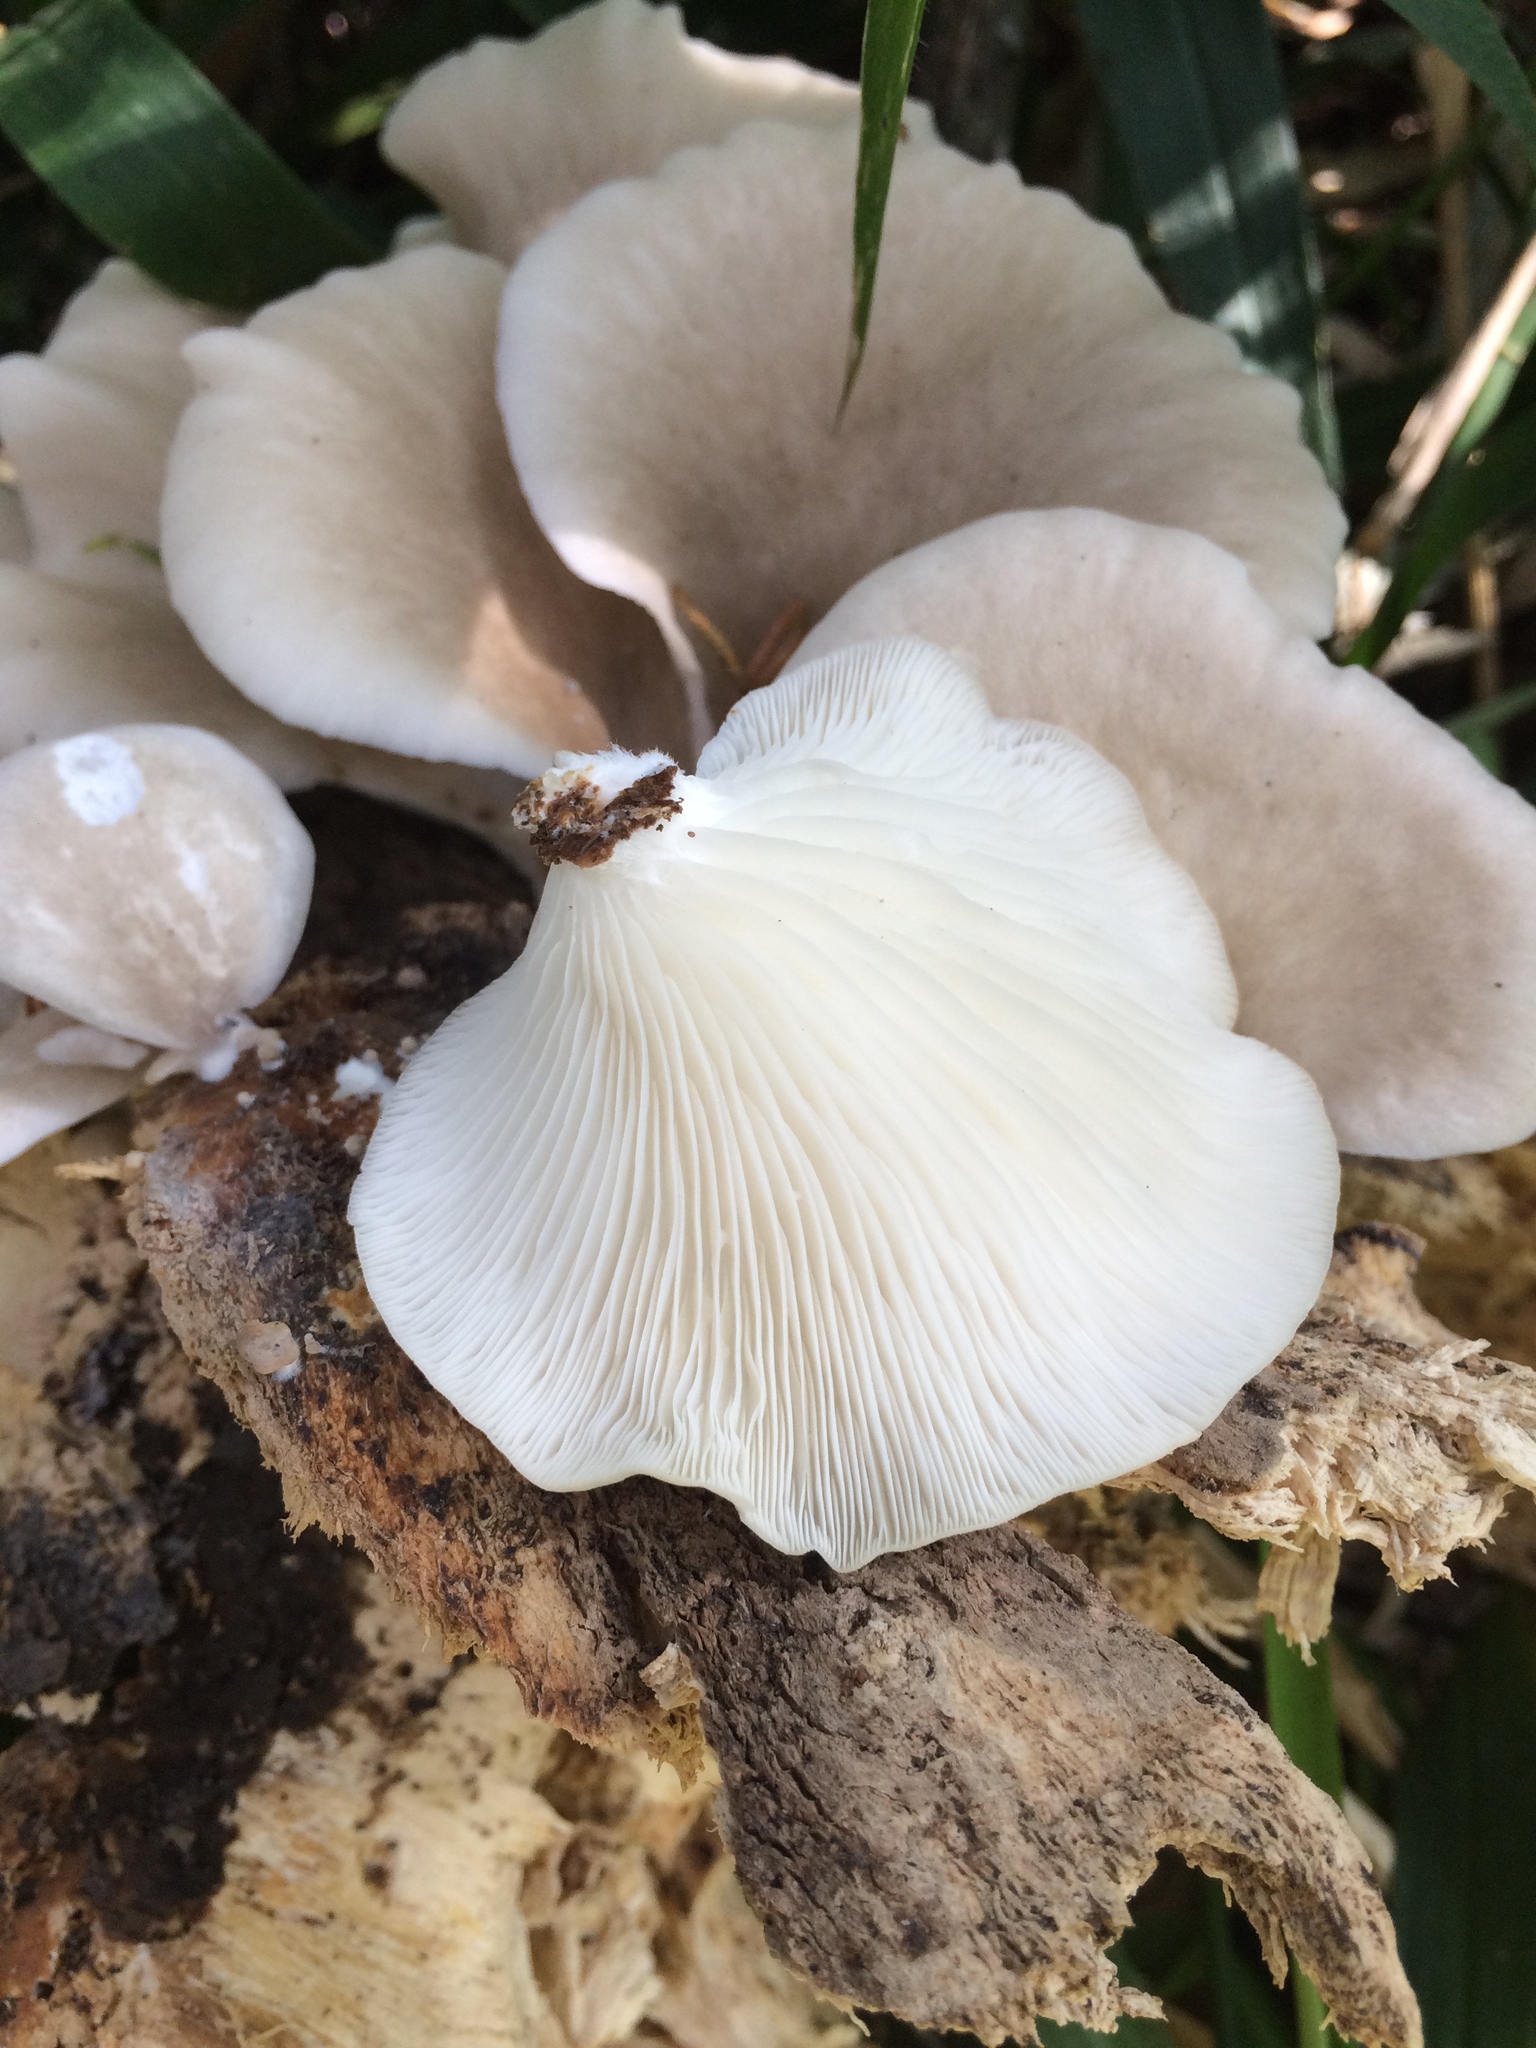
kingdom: Fungi
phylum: Basidiomycota
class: Agaricomycetes
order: Agaricales
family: Pleurotaceae
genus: Pleurotus
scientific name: Pleurotus ostreatus
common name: Oyster mushroom
